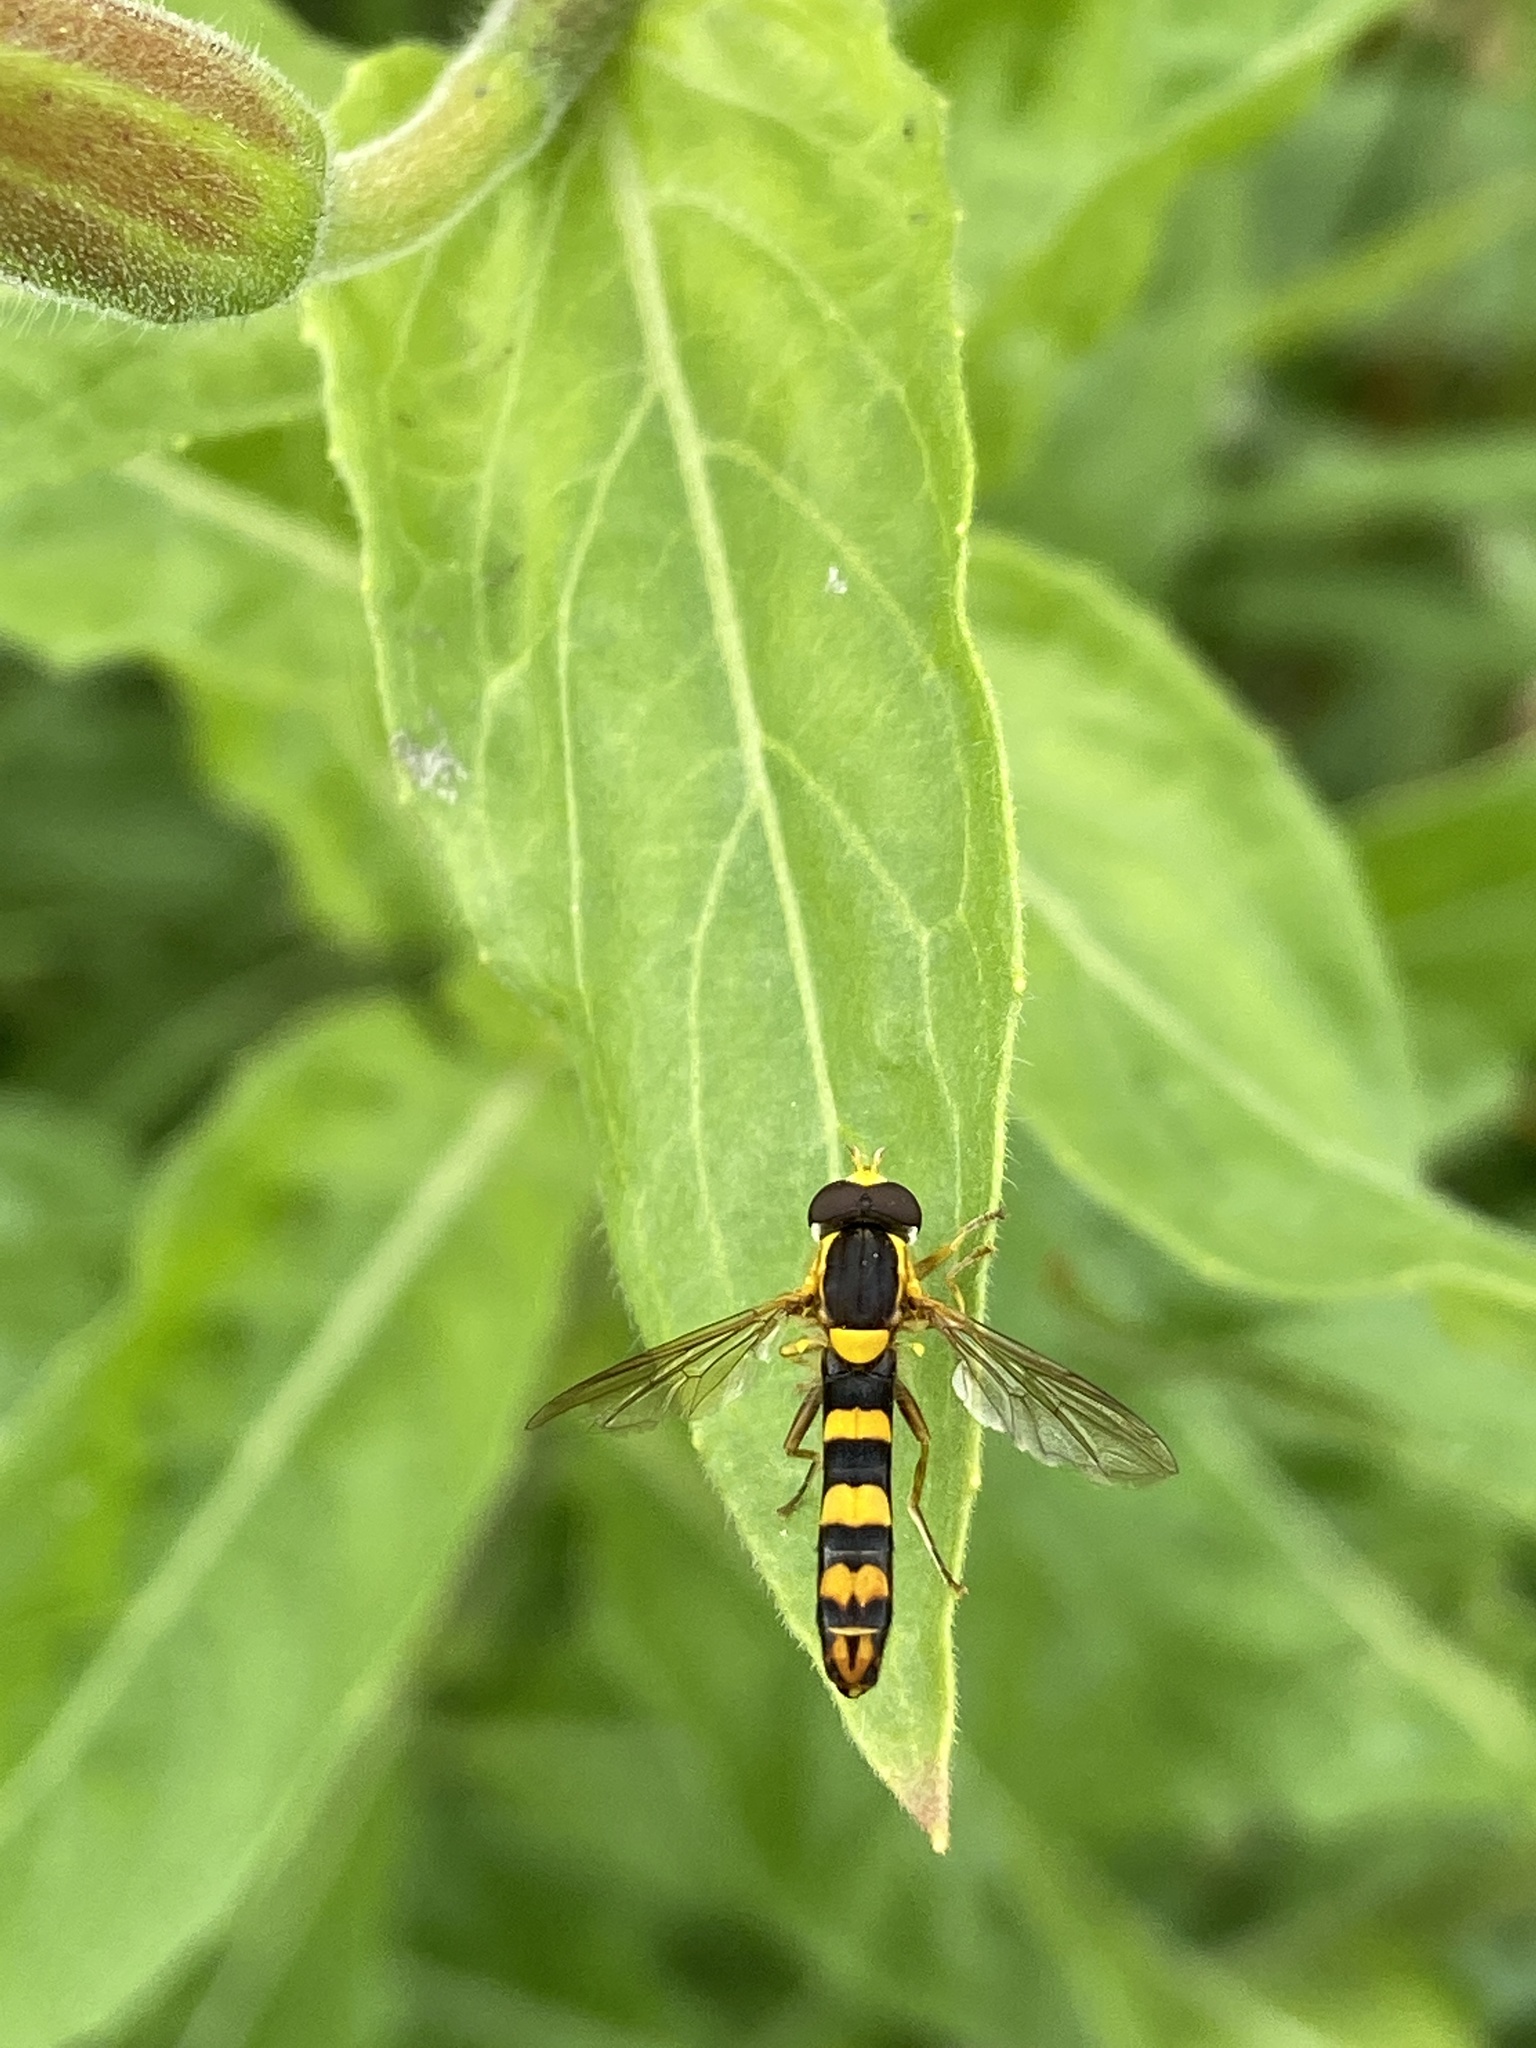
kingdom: Animalia
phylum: Arthropoda
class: Insecta
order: Diptera
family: Syrphidae
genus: Sphaerophoria
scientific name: Sphaerophoria scripta
